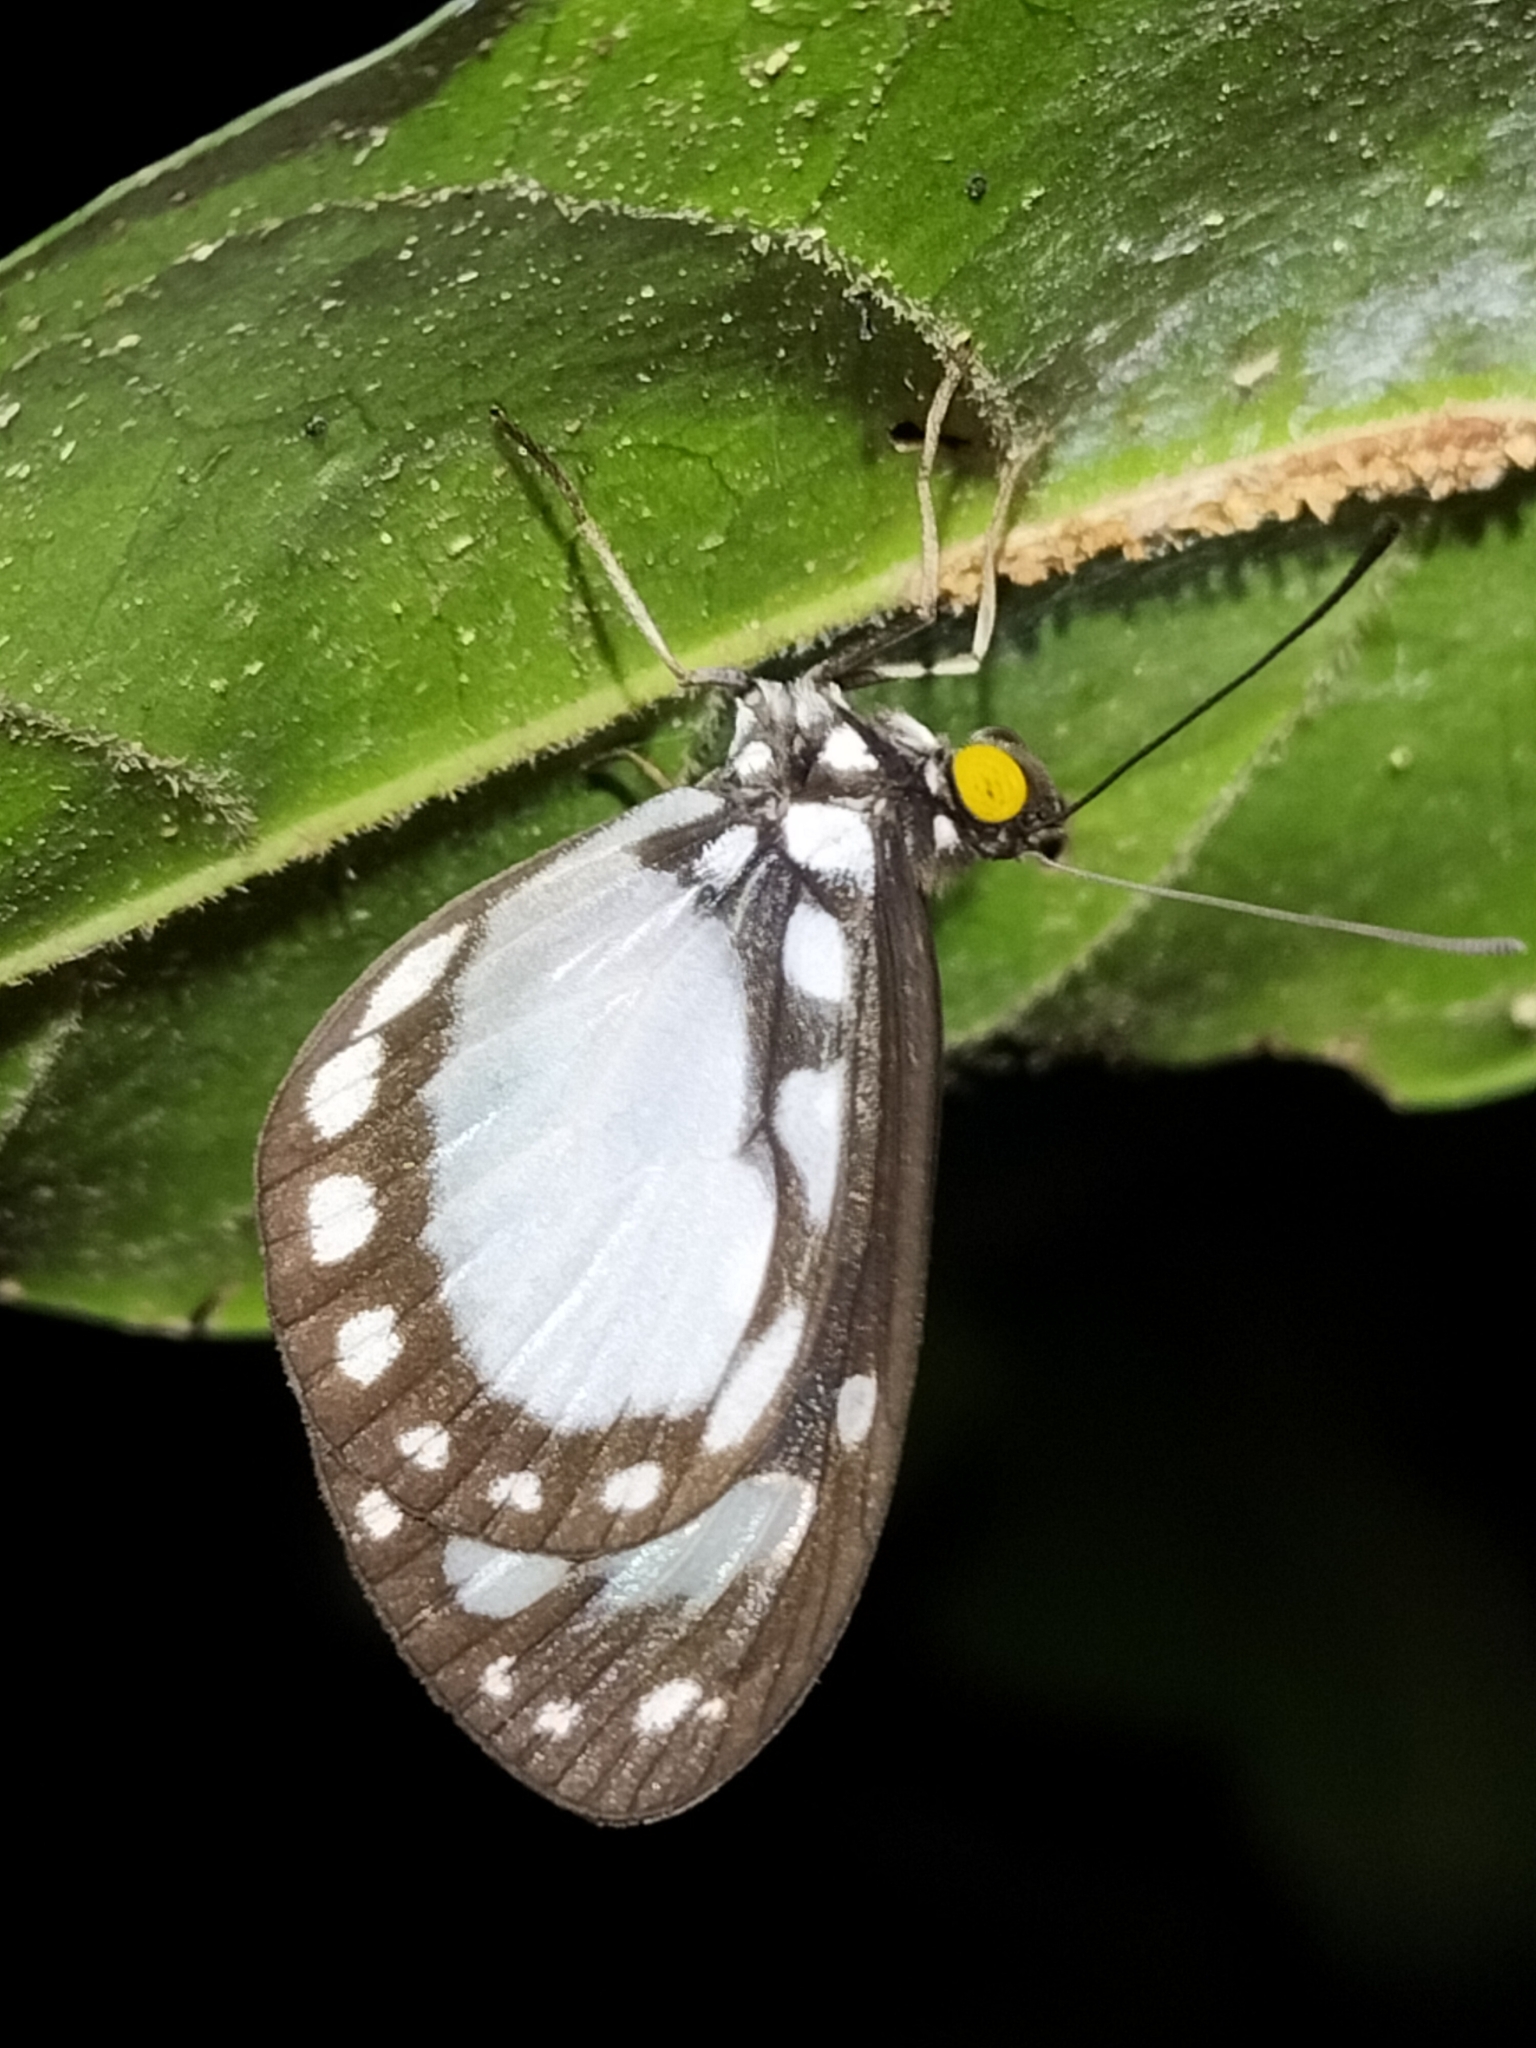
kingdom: Animalia
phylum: Arthropoda
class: Insecta
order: Lepidoptera
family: Nymphalidae
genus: Tellervo
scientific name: Tellervo zoilus
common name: Hamadryad
